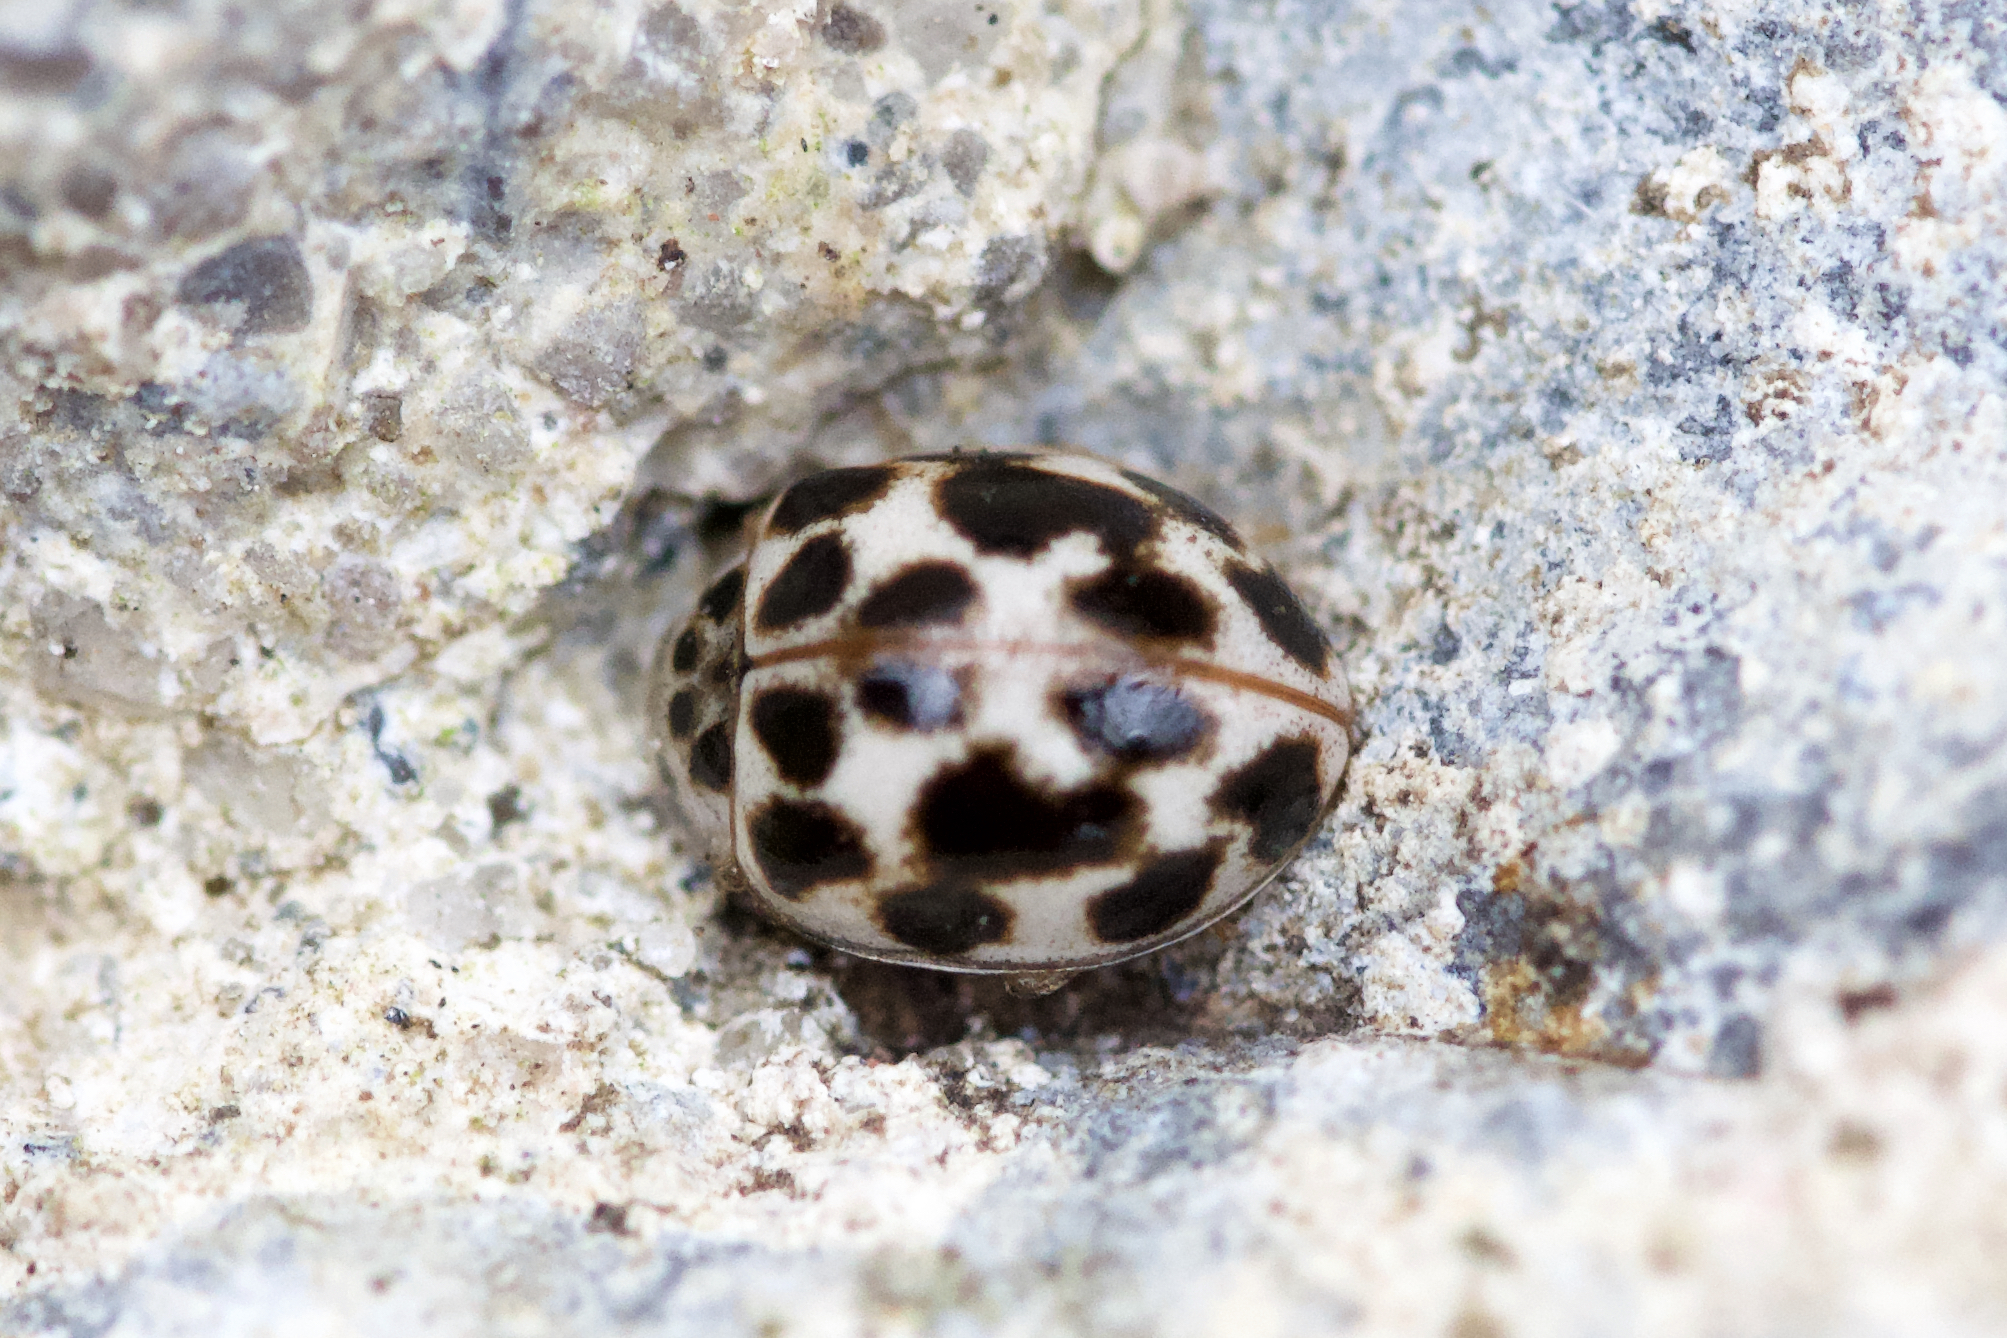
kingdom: Animalia
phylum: Arthropoda
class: Insecta
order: Coleoptera
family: Coccinellidae
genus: Psyllobora
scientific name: Psyllobora vigintimaculata
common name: Ladybird beetle
